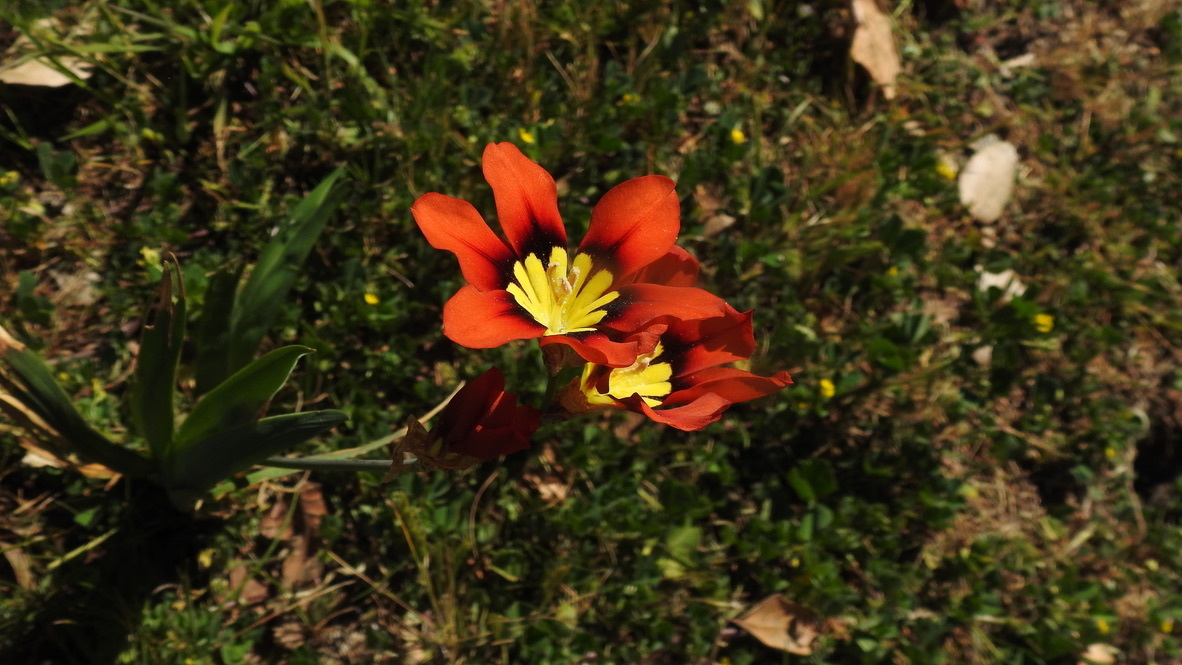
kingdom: Plantae
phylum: Tracheophyta
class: Liliopsida
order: Asparagales
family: Iridaceae
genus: Sparaxis
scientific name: Sparaxis tricolor
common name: Wandflower
